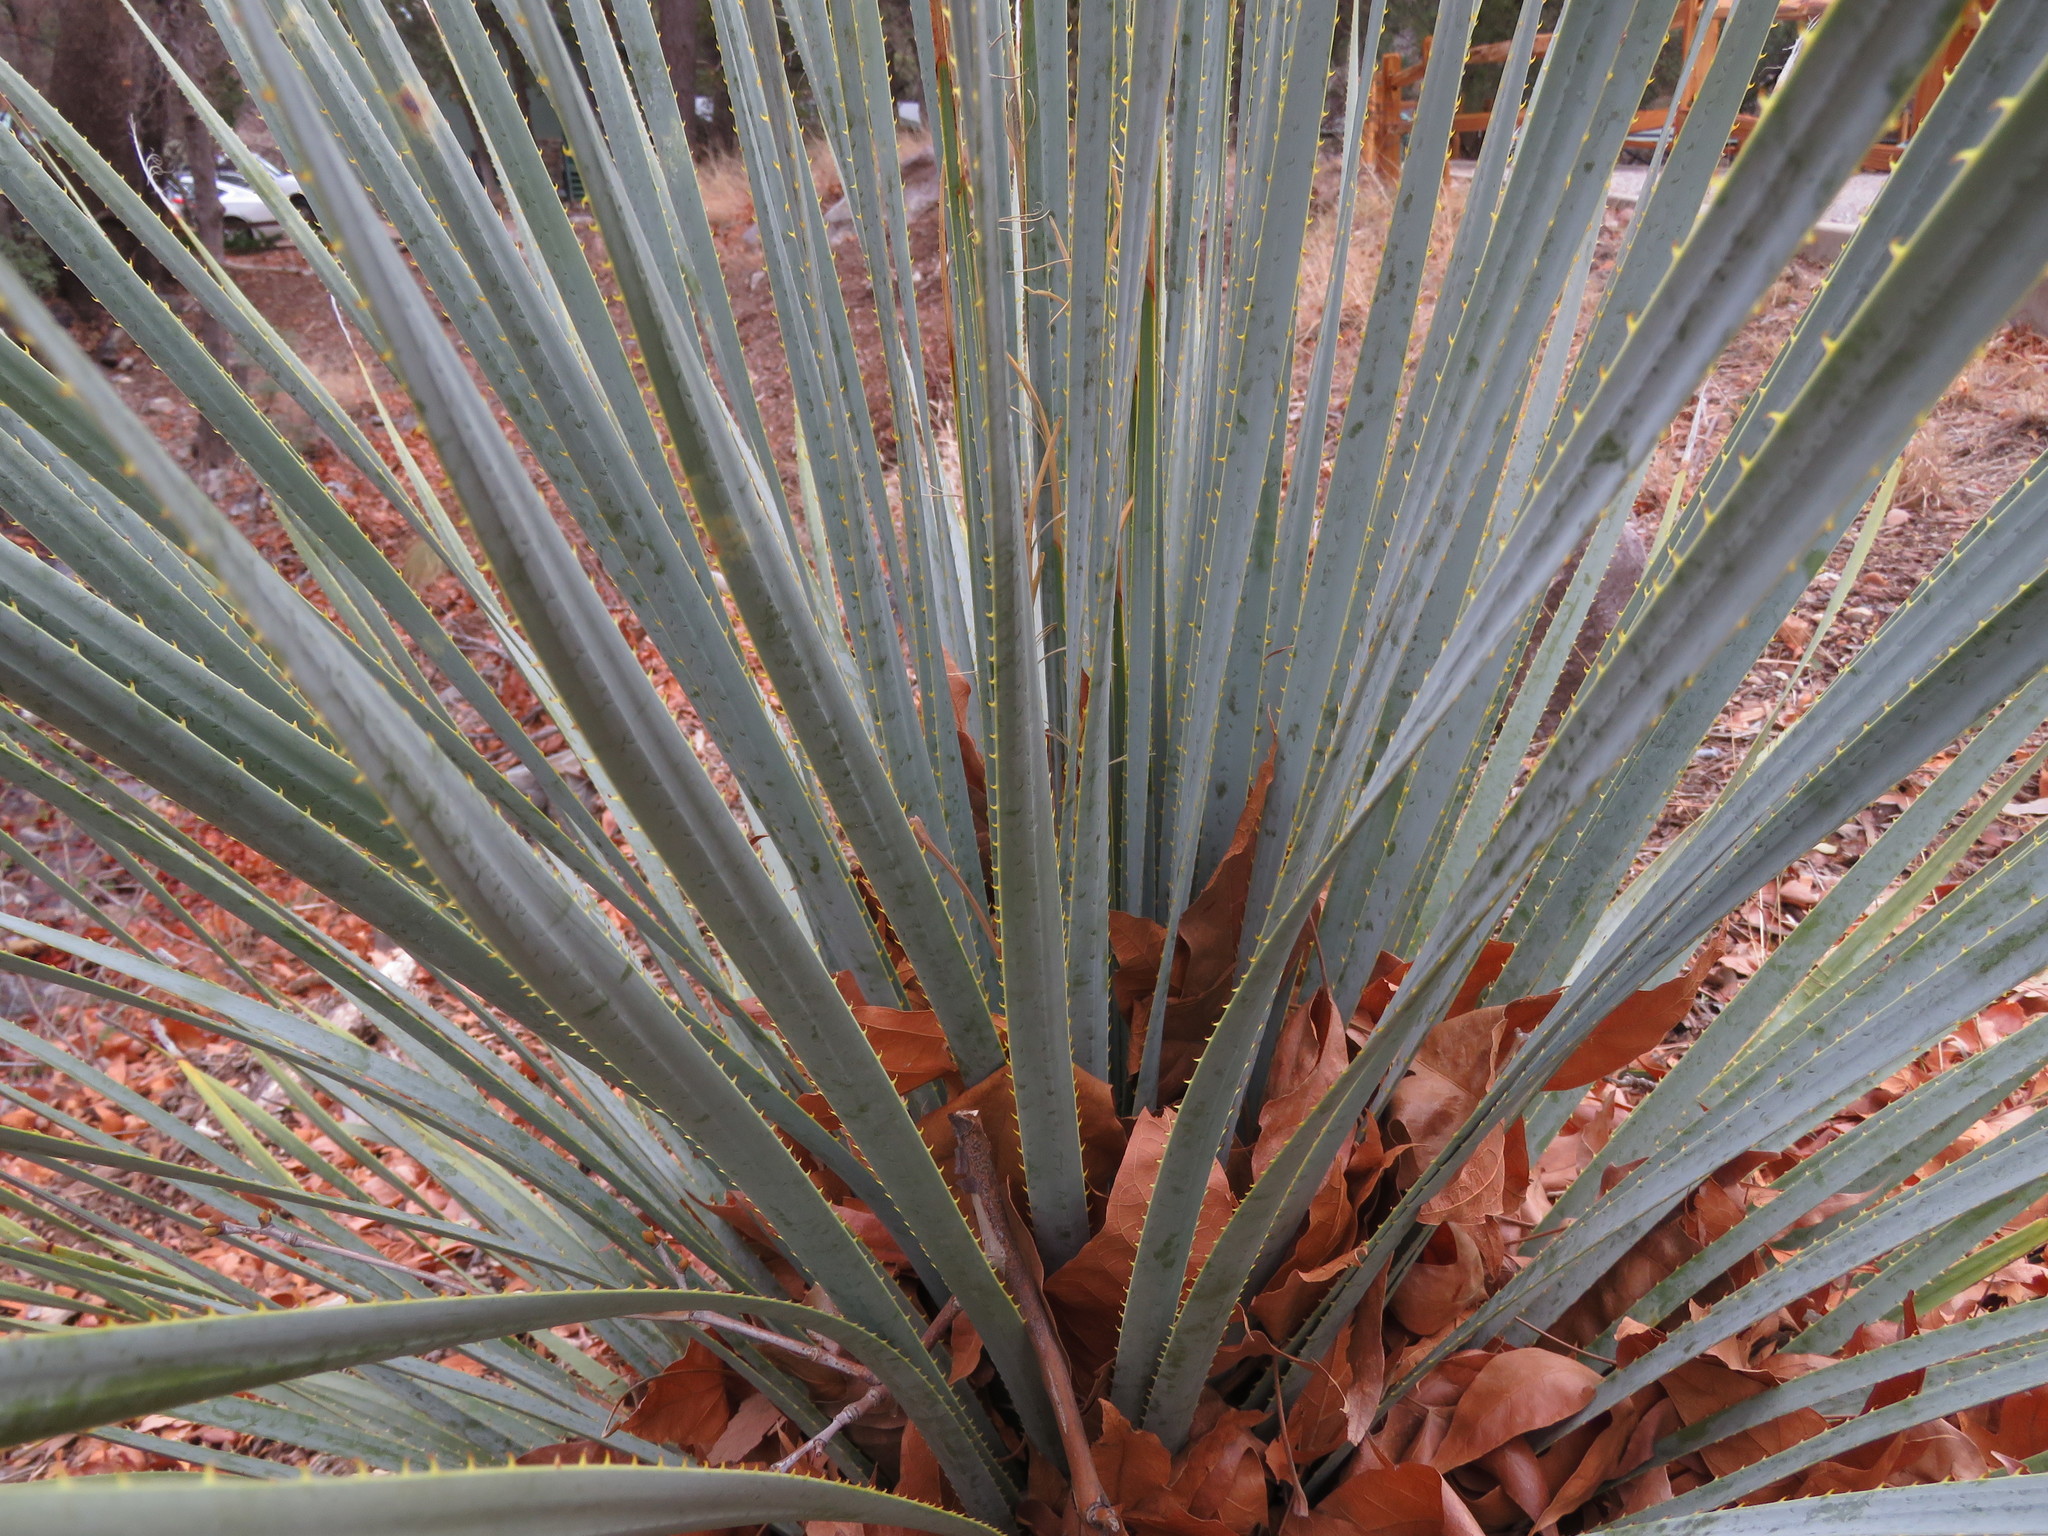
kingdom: Plantae
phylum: Tracheophyta
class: Liliopsida
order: Asparagales
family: Asparagaceae
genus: Dasylirion
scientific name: Dasylirion wheeleri
